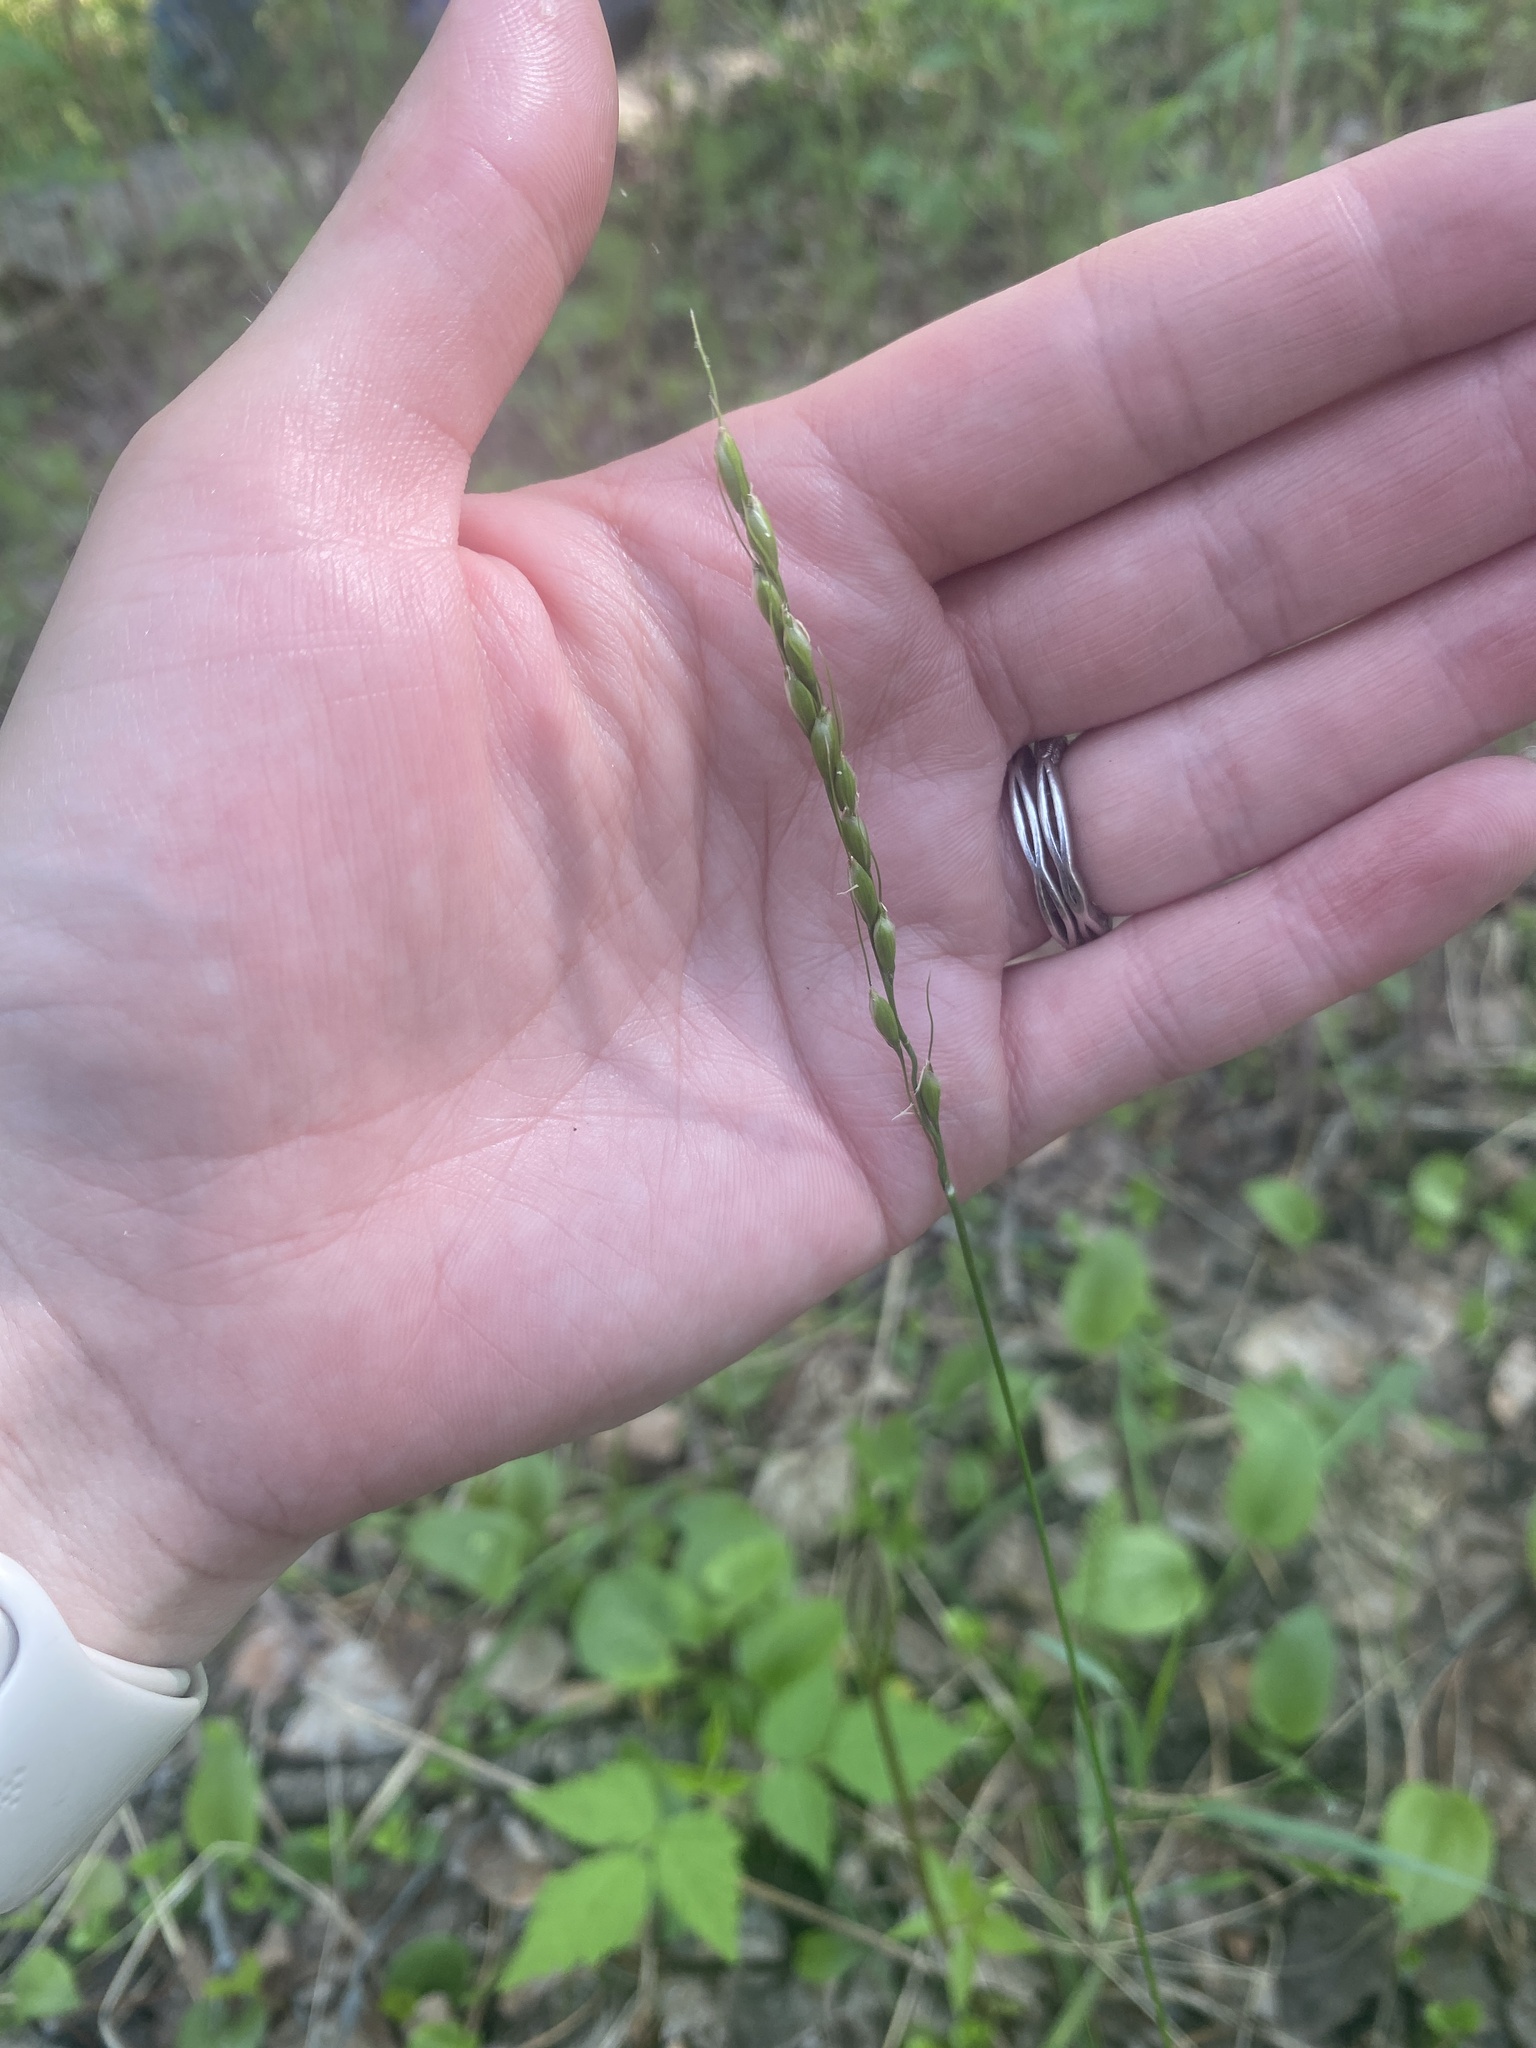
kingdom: Plantae
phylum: Tracheophyta
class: Liliopsida
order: Poales
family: Poaceae
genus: Oryzopsis
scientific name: Oryzopsis asperifolia
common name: Rough-leaved mountain rice
